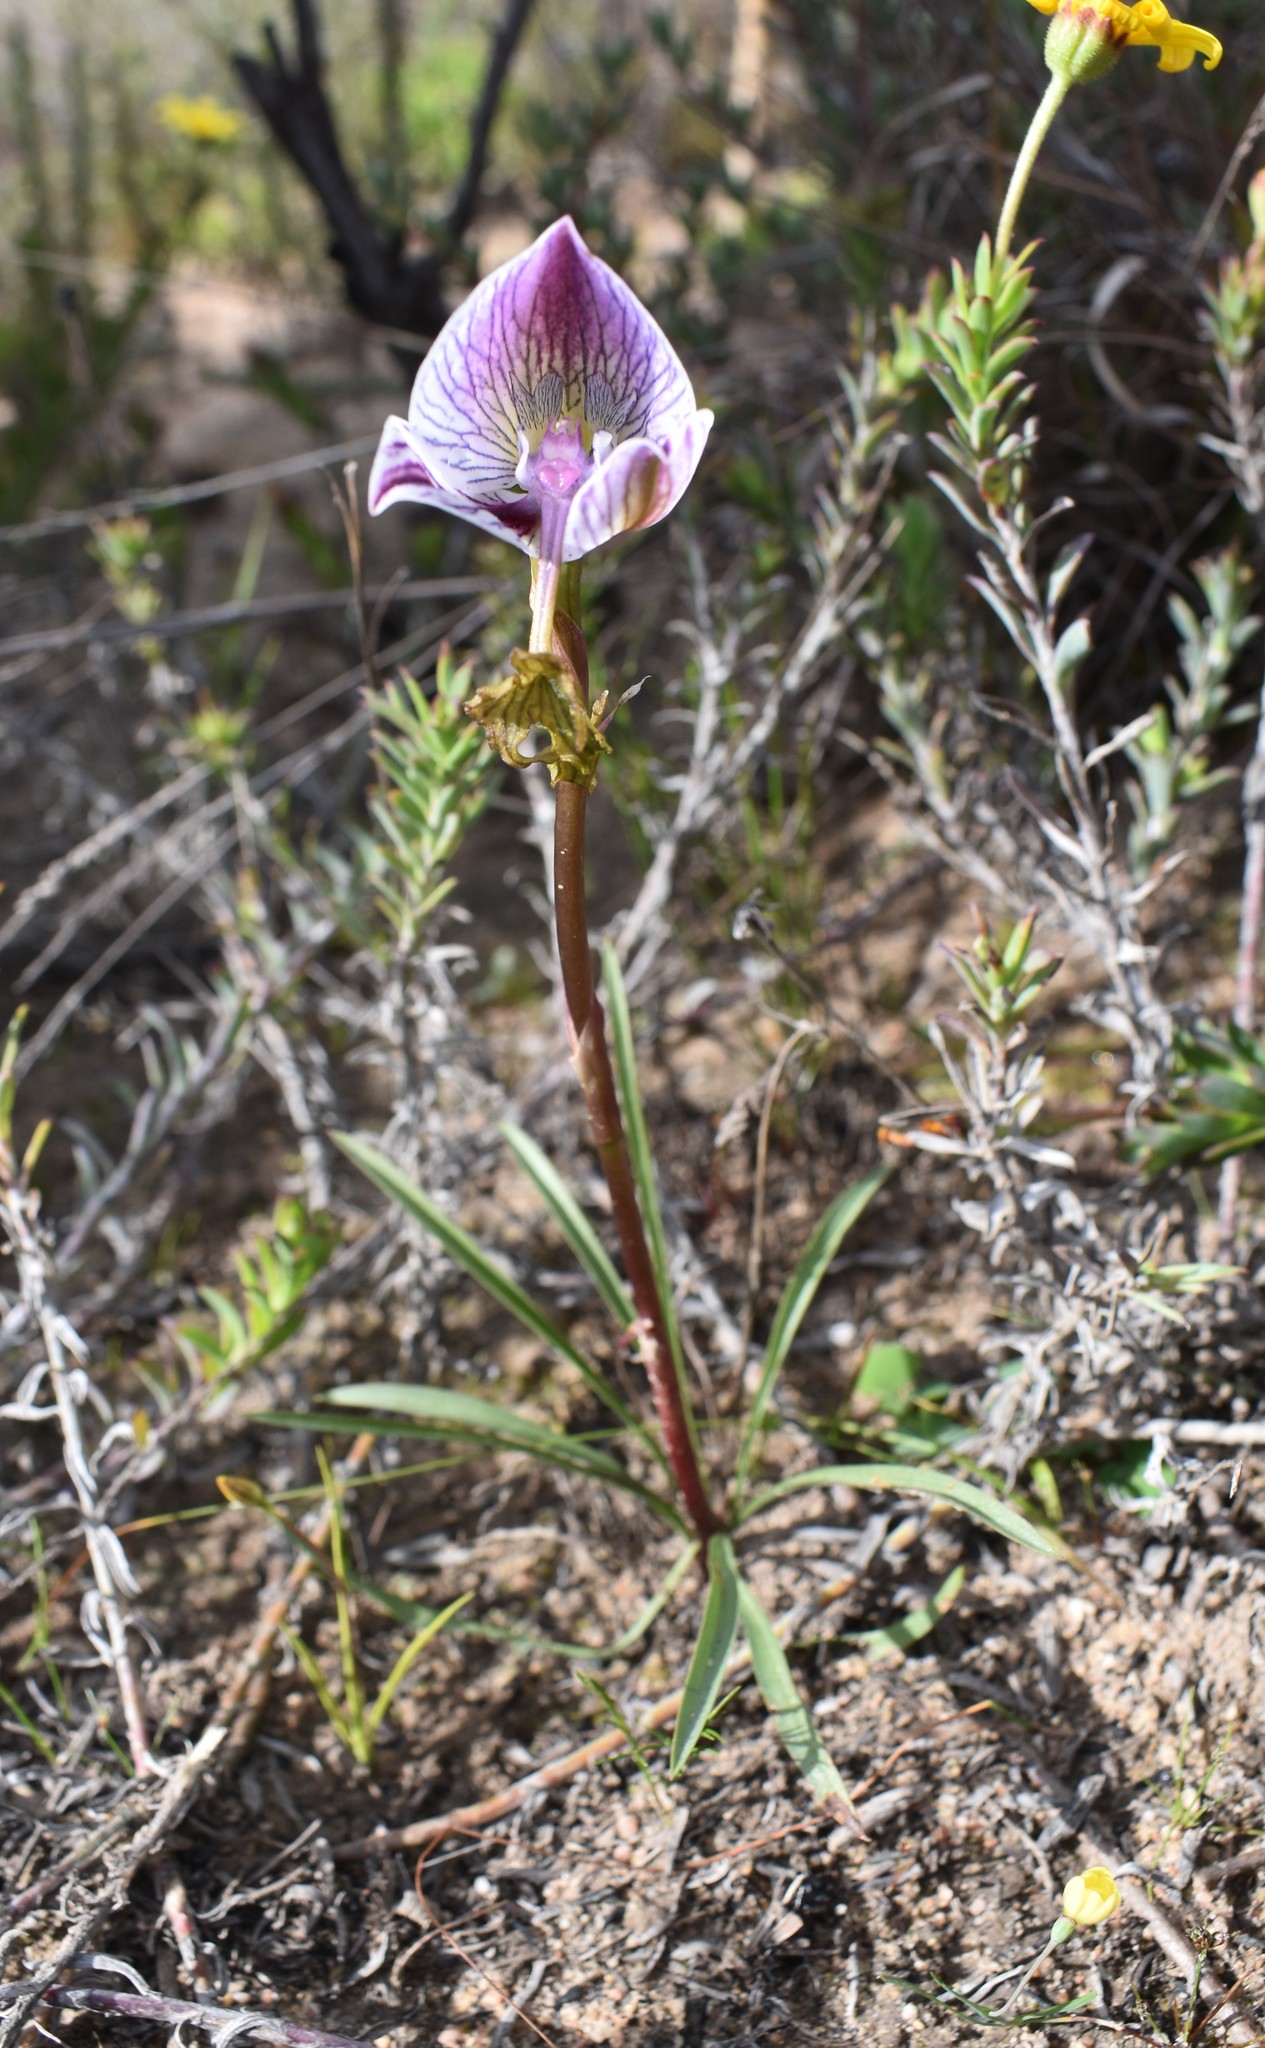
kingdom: Plantae
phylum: Tracheophyta
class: Liliopsida
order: Asparagales
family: Orchidaceae
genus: Disa
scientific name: Disa spathulata
